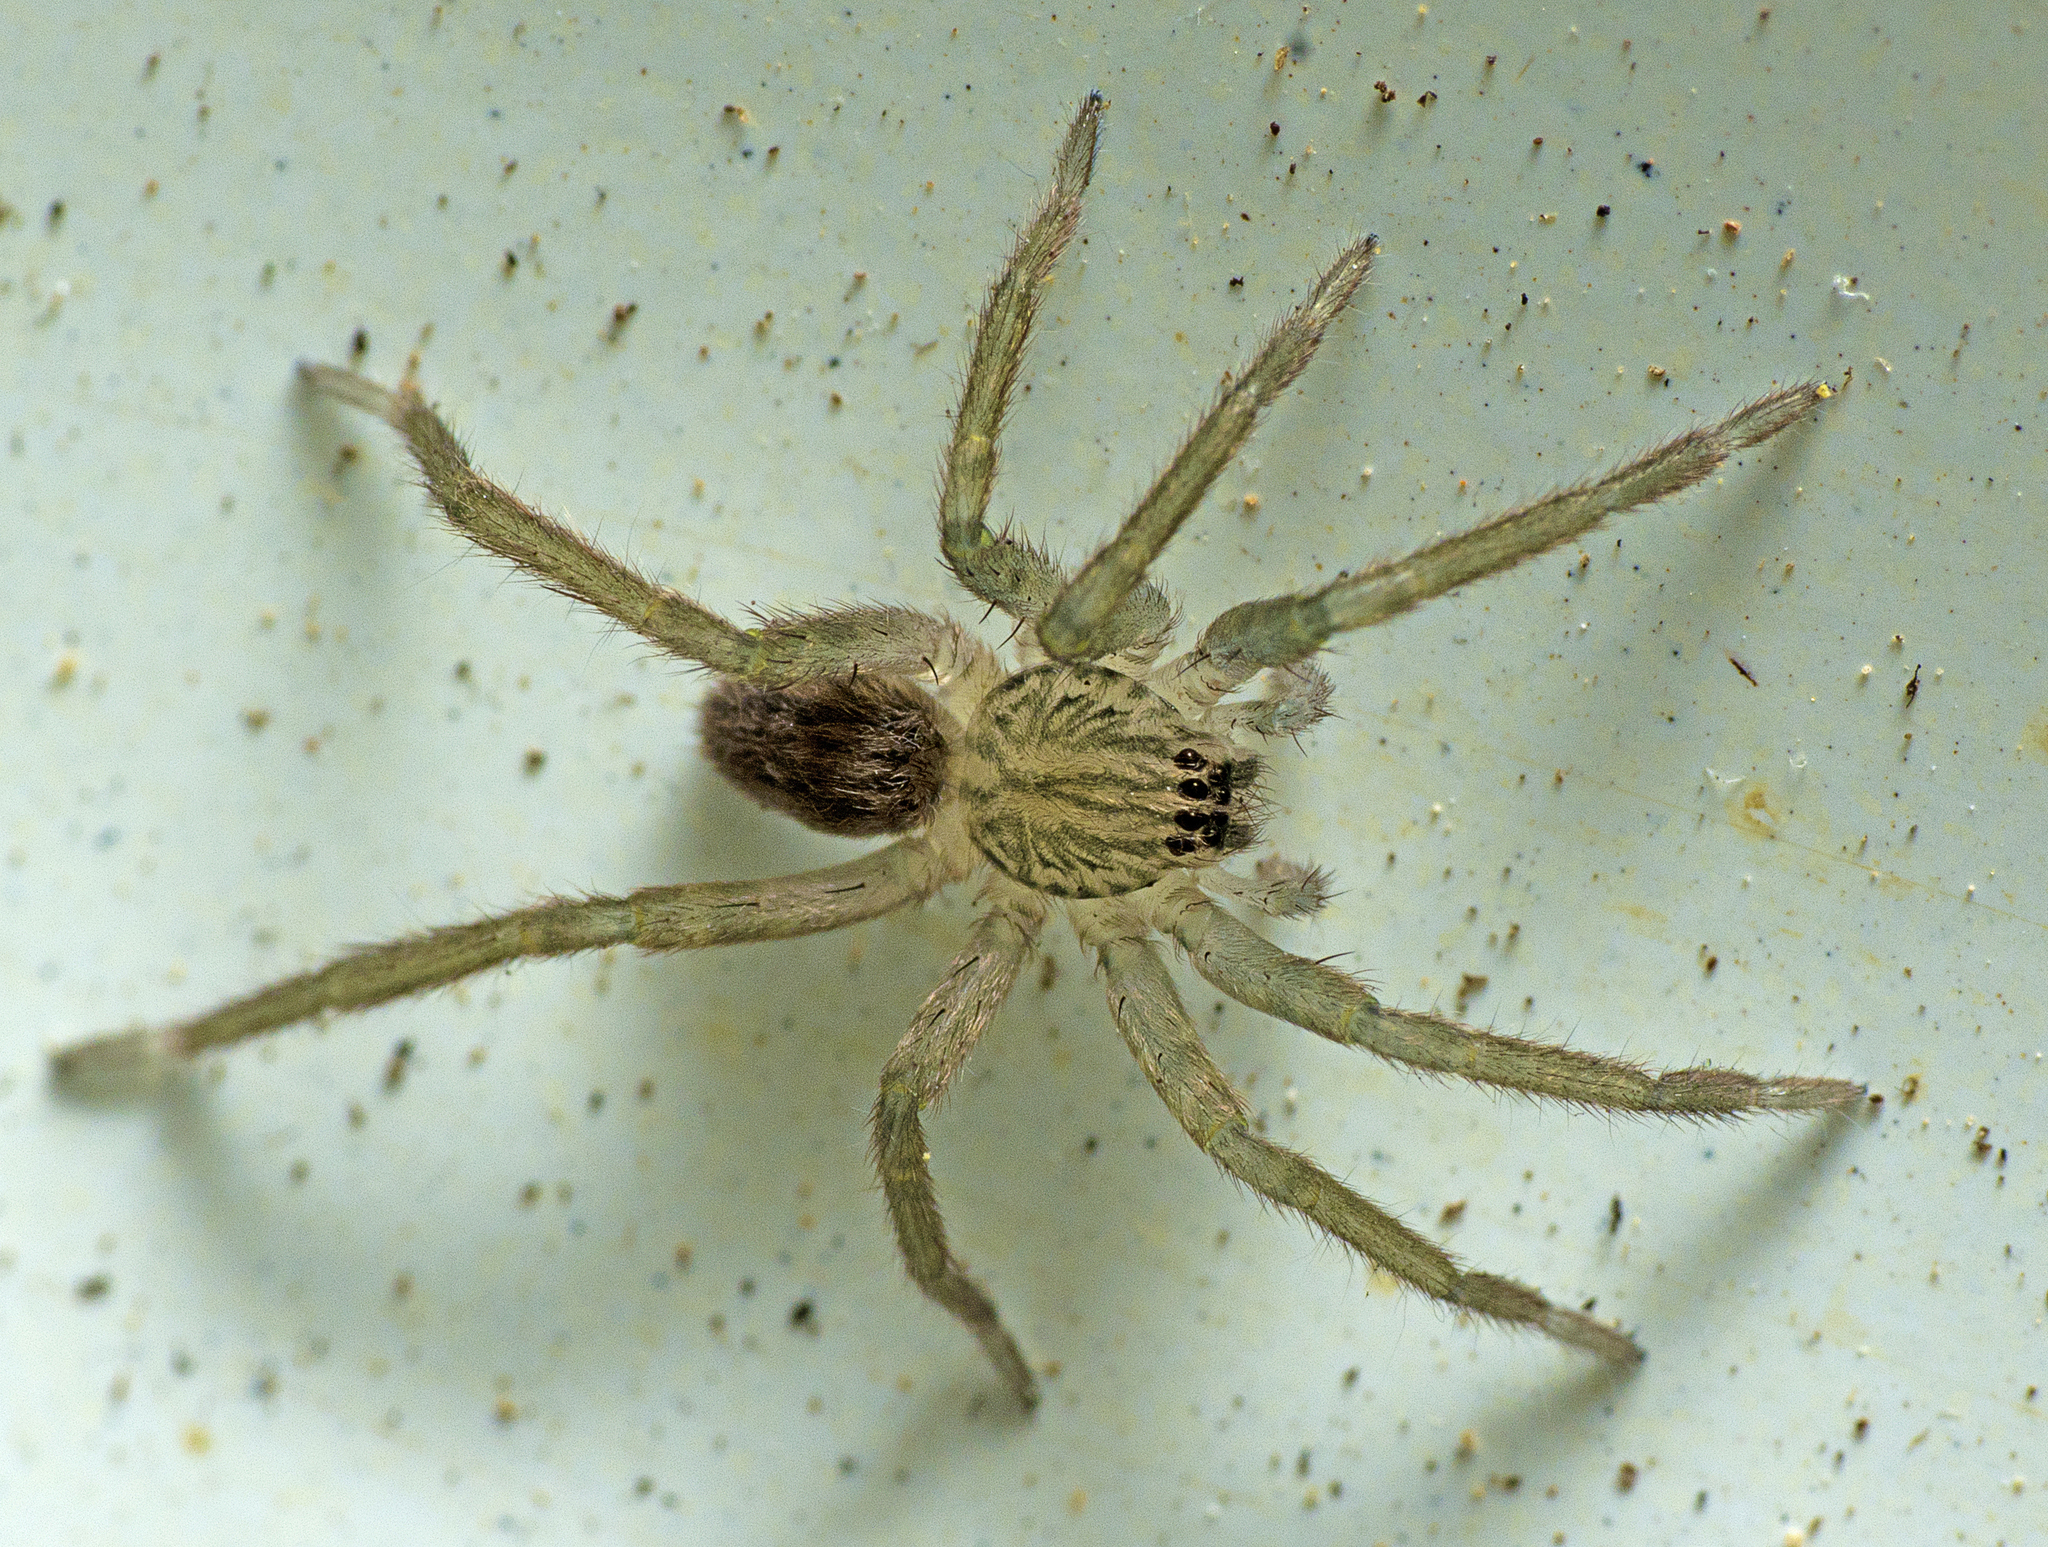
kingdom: Animalia
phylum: Arthropoda
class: Arachnida
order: Araneae
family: Miturgidae
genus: Mituliodon
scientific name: Mituliodon tarantulinus
